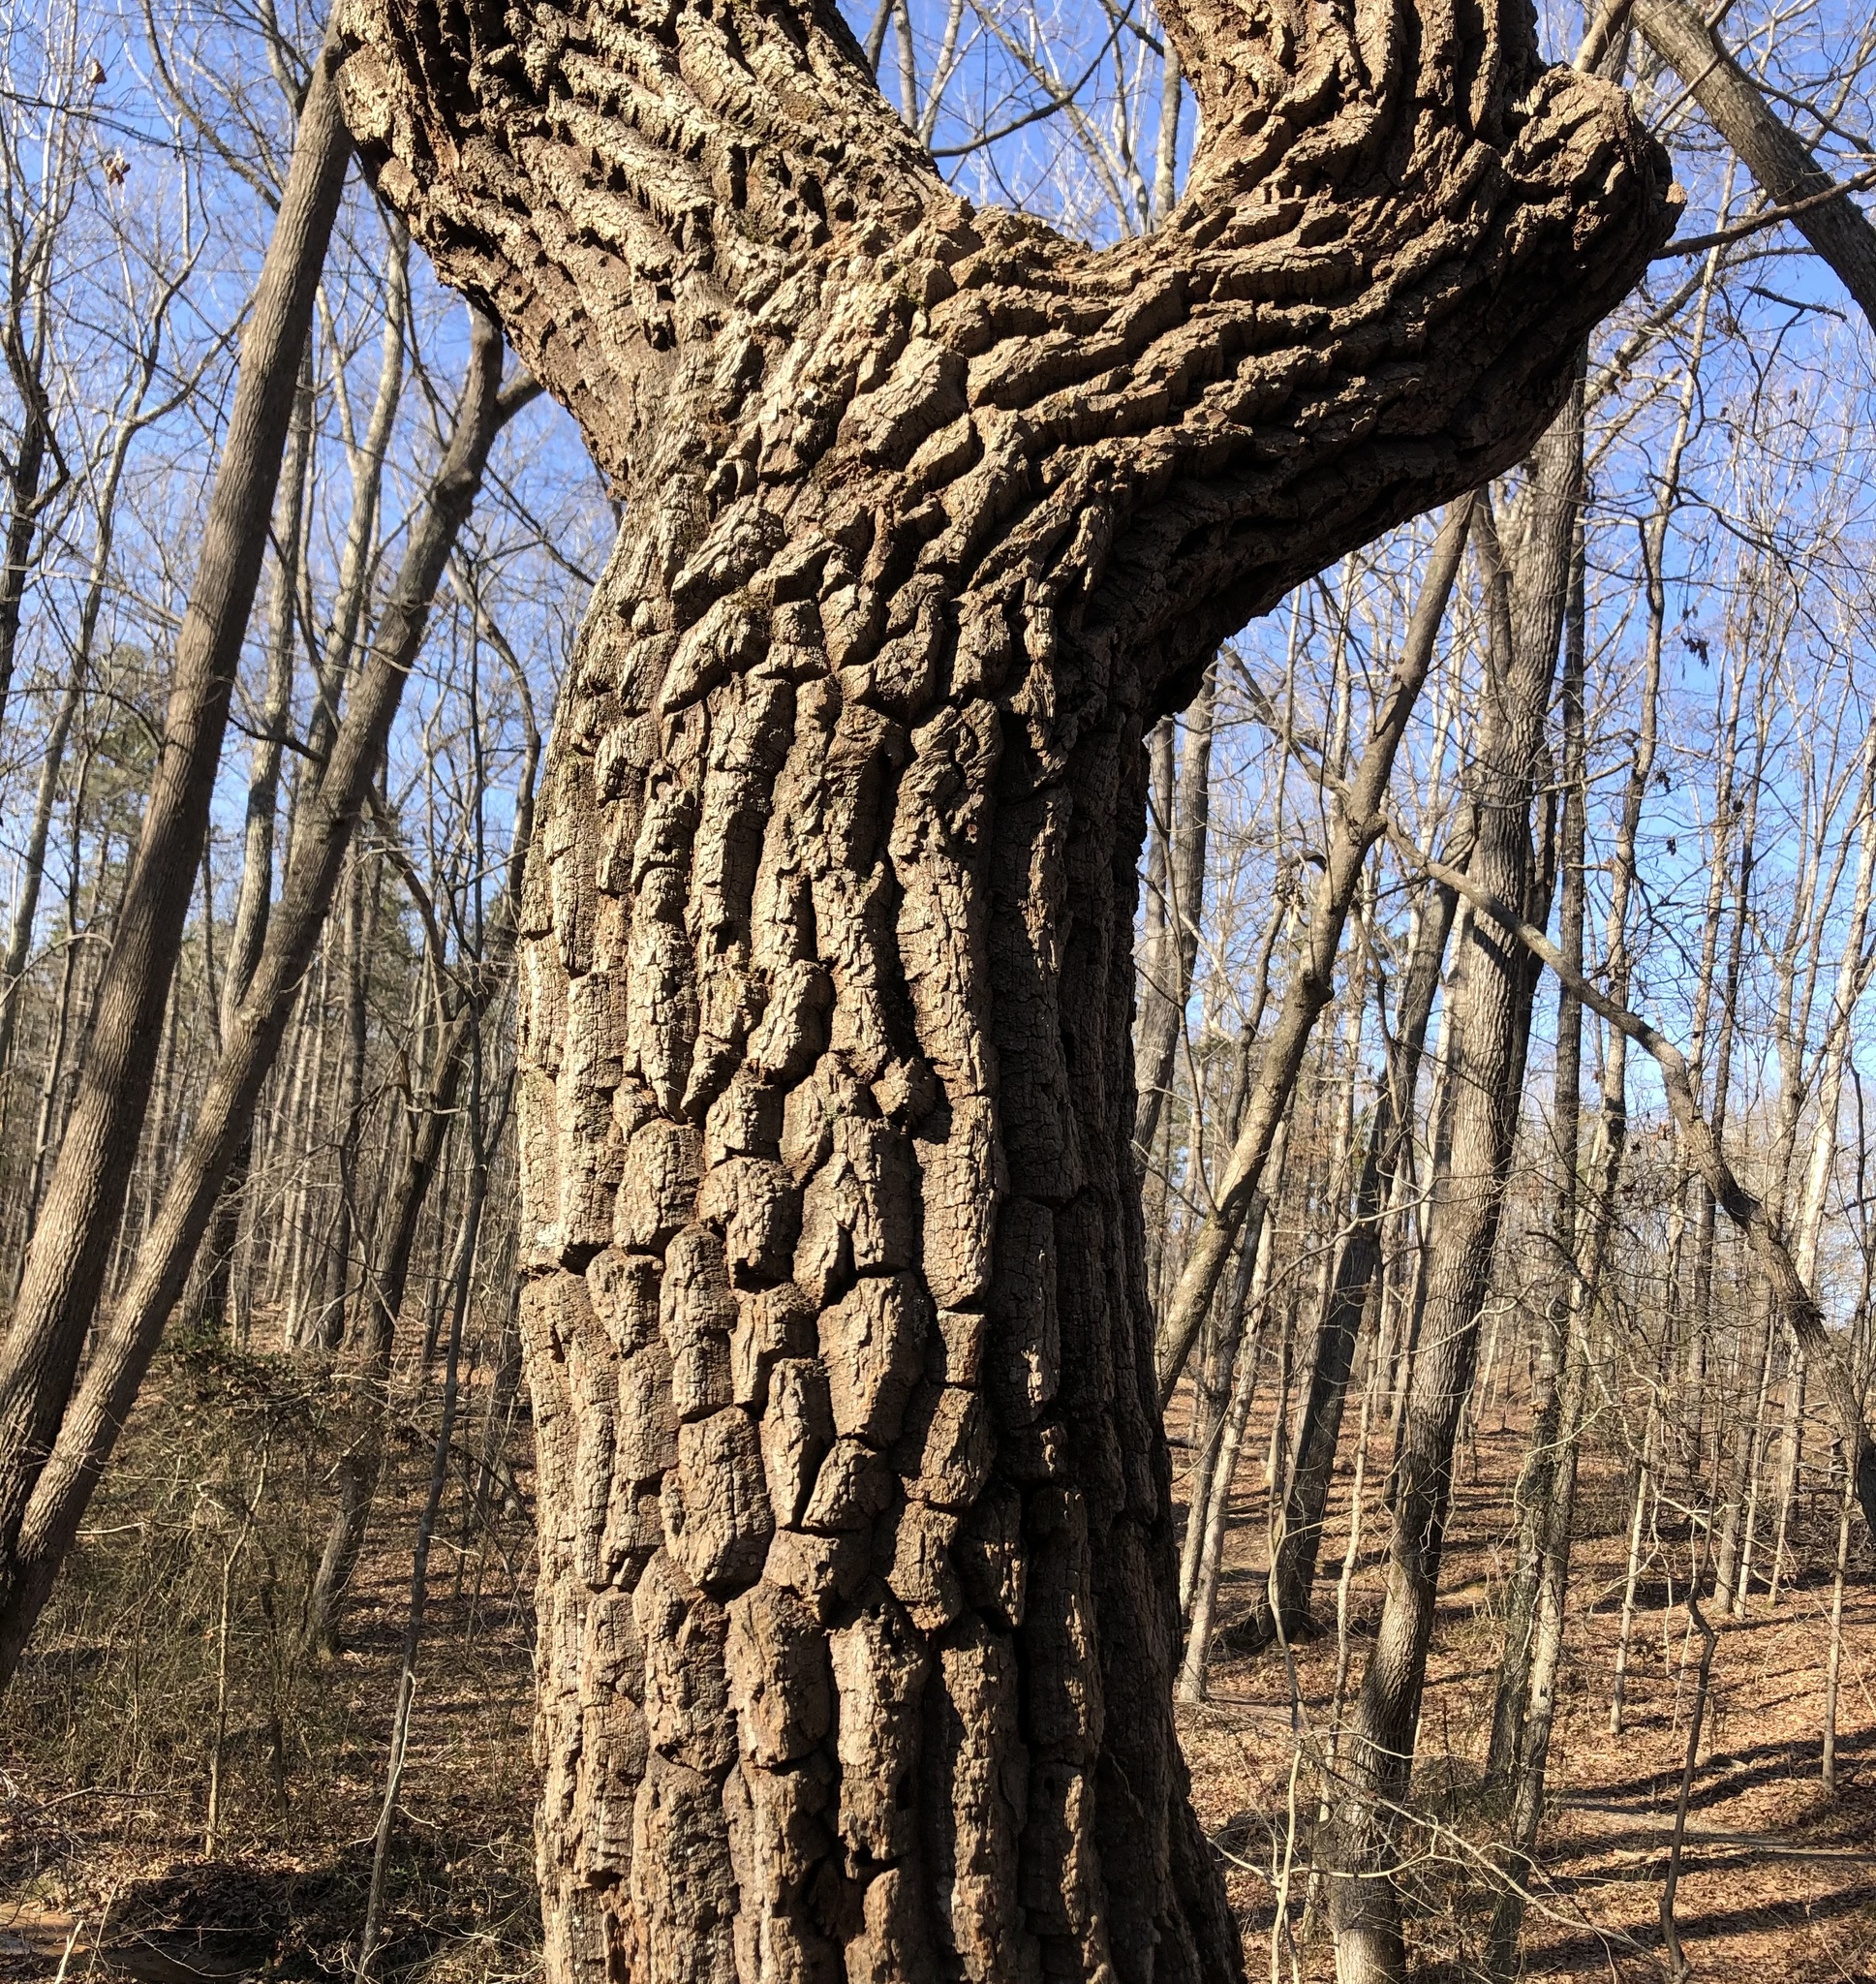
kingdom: Plantae
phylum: Tracheophyta
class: Magnoliopsida
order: Ericales
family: Ericaceae
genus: Oxydendrum
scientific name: Oxydendrum arboreum
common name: Sourwood
